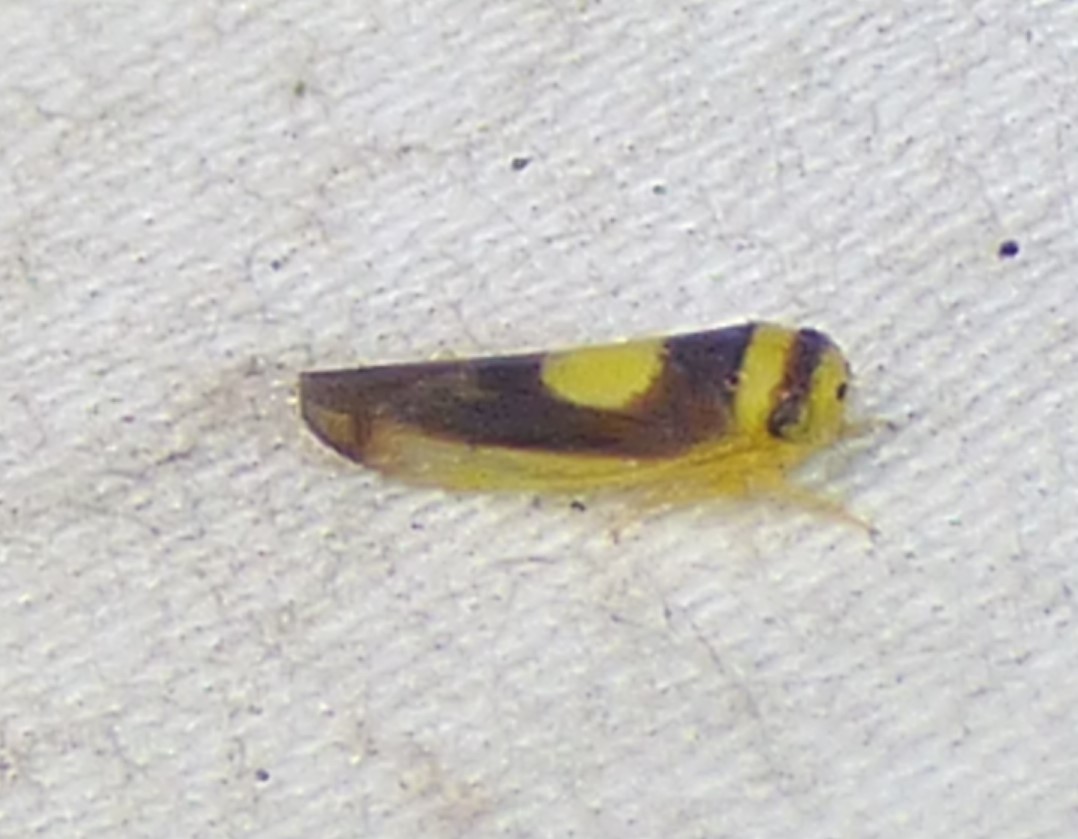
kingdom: Animalia
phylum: Arthropoda
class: Insecta
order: Hemiptera
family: Cicadellidae
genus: Colladonus
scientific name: Colladonus clitellarius
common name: The saddleback leafhopper
